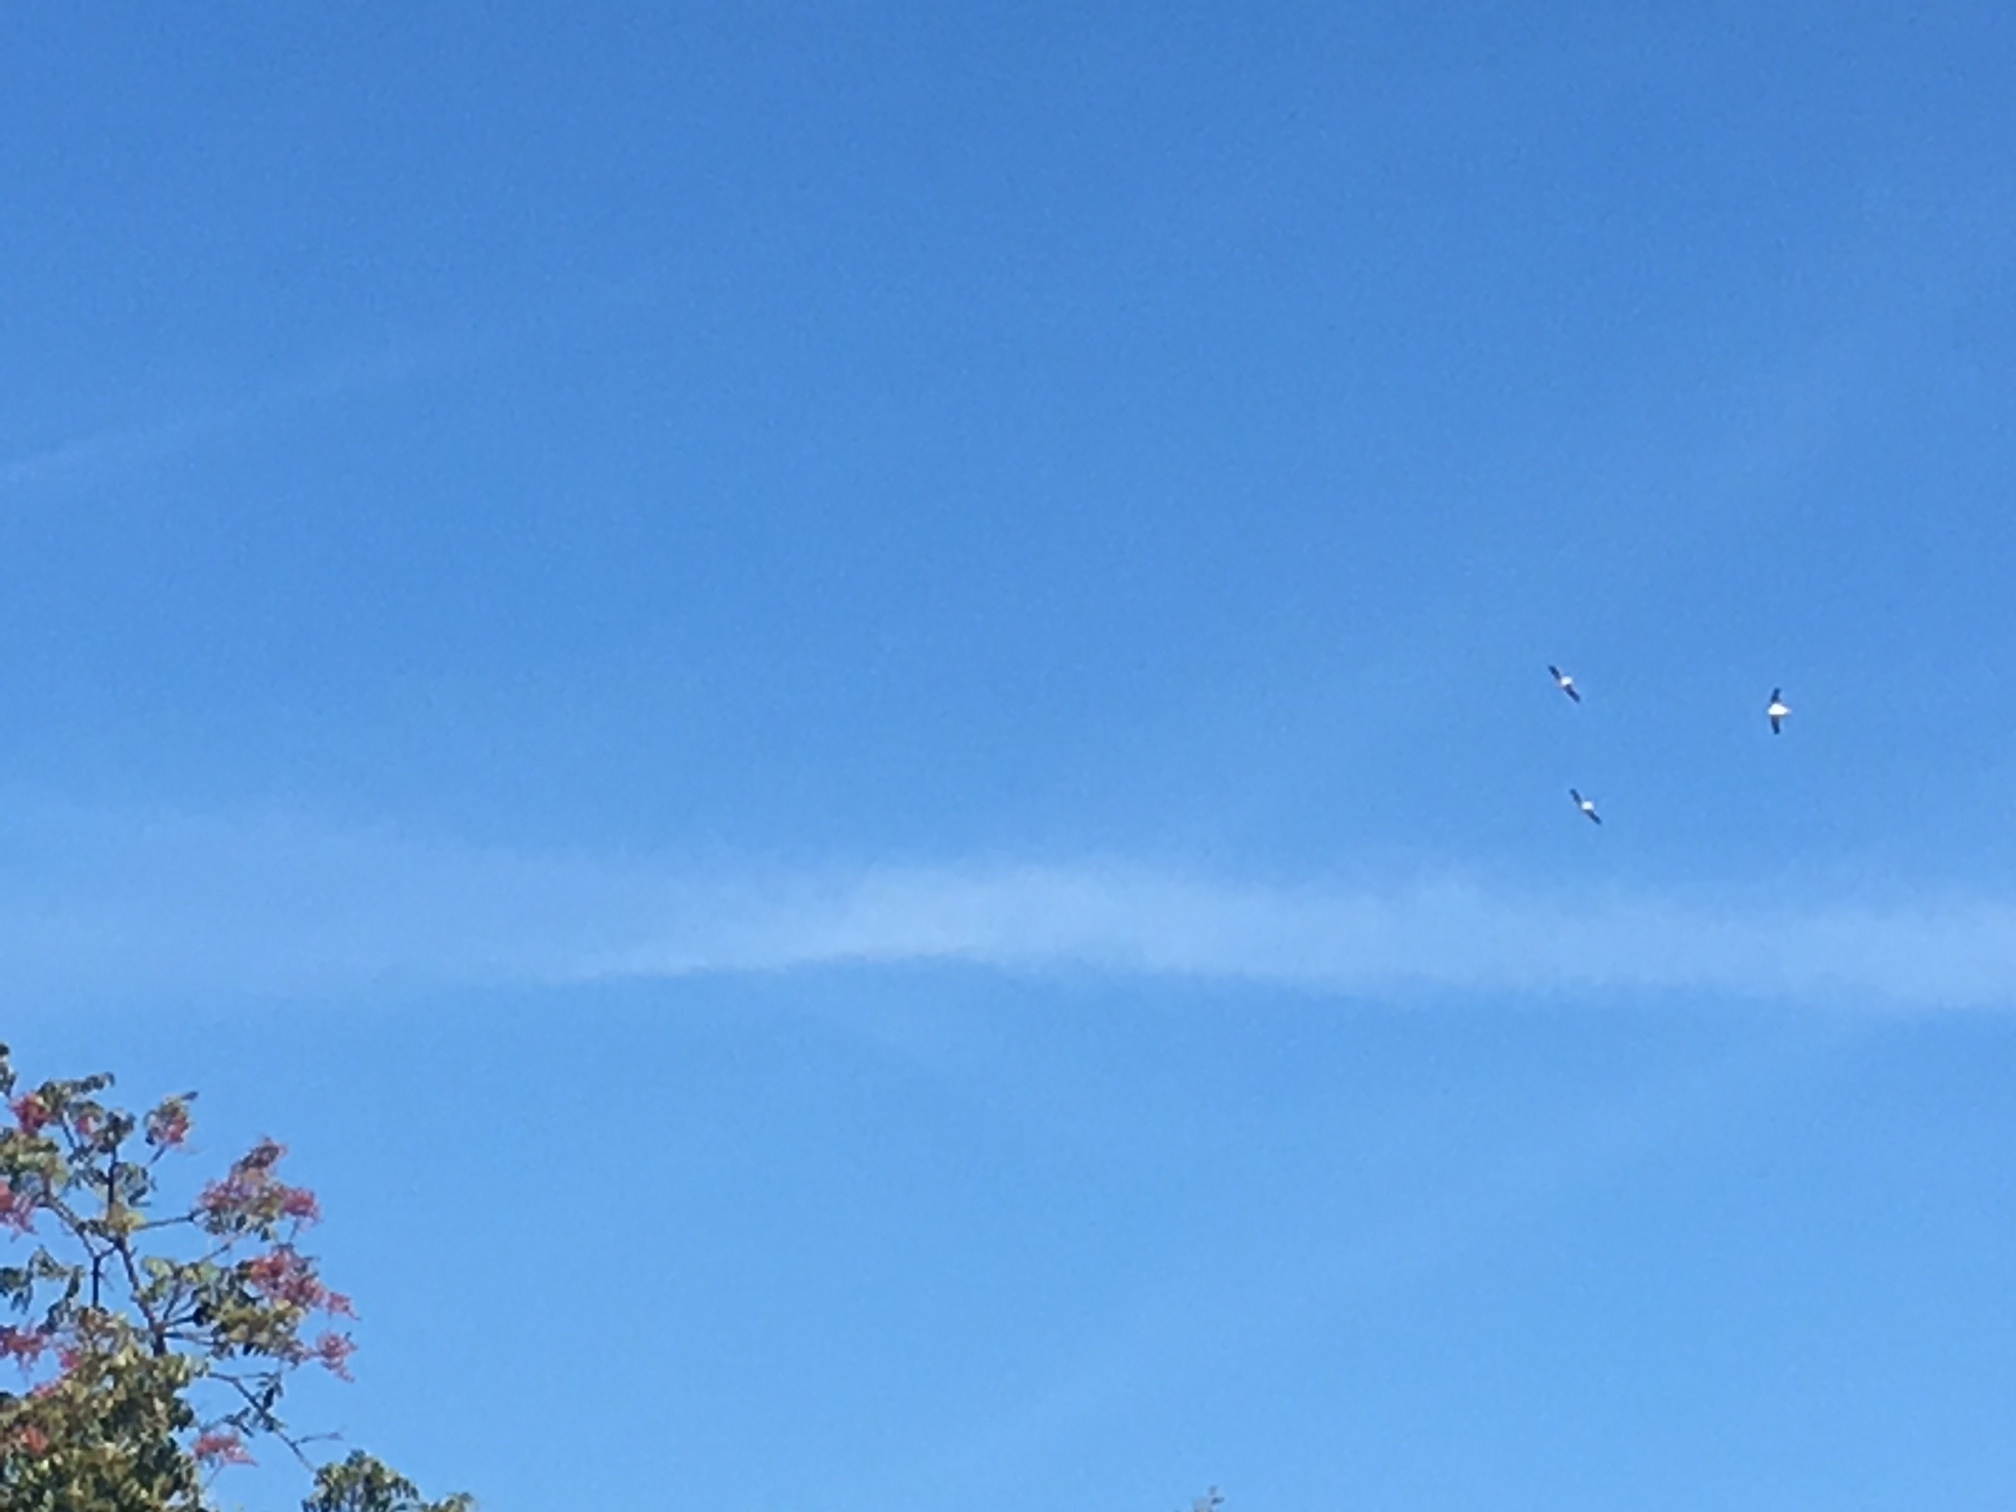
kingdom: Animalia
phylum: Chordata
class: Aves
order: Pelecaniformes
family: Pelecanidae
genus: Pelecanus
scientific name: Pelecanus erythrorhynchos
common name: American white pelican
